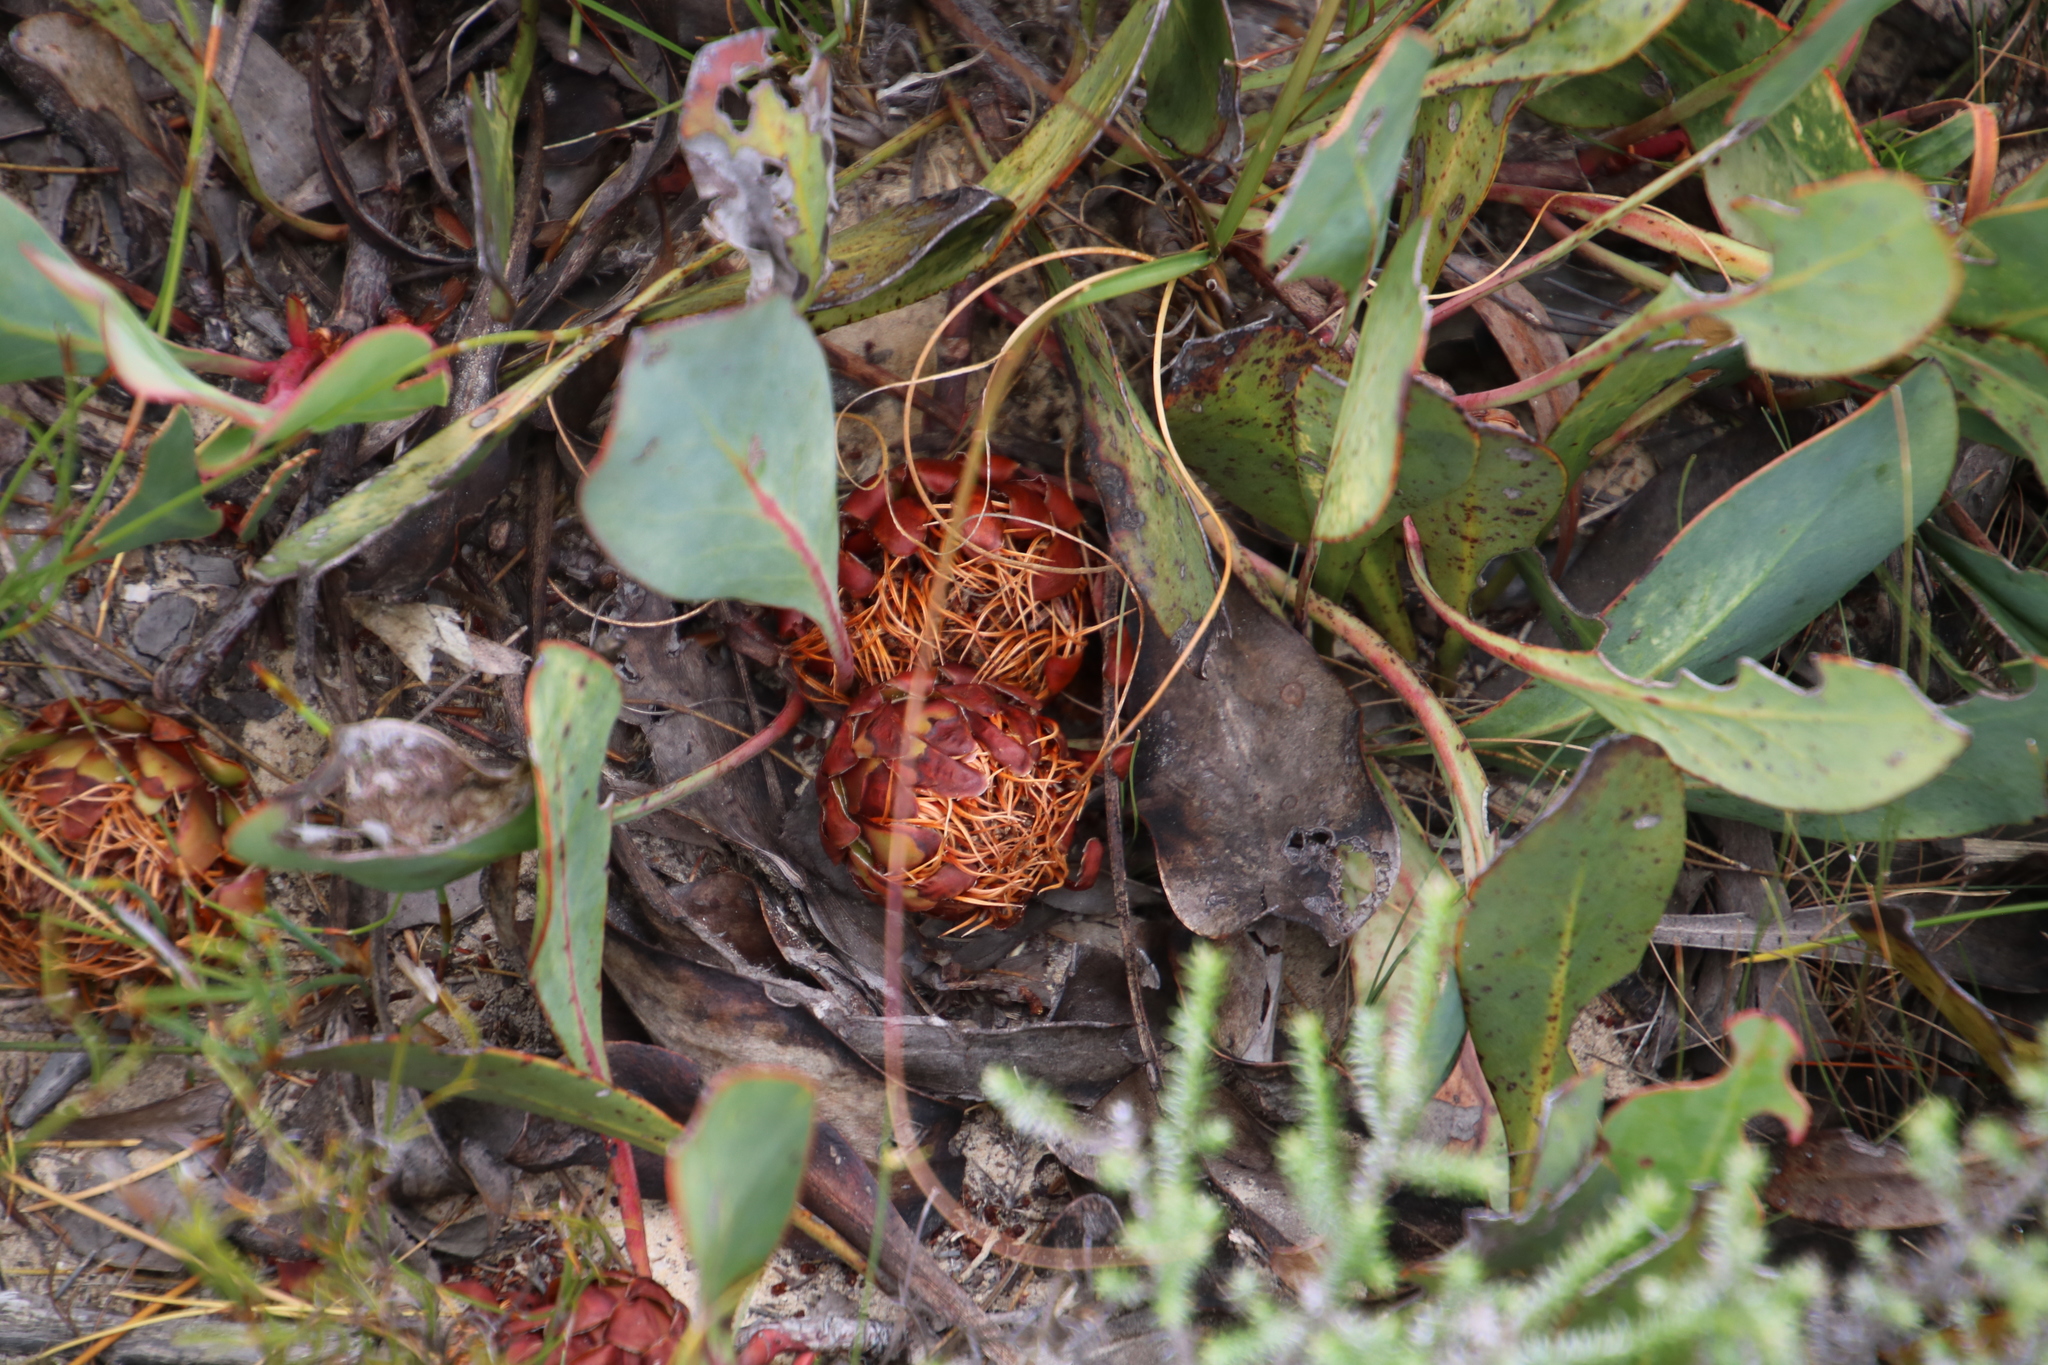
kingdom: Plantae
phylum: Tracheophyta
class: Magnoliopsida
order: Proteales
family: Proteaceae
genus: Protea
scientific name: Protea cordata
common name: Heart-leaf sugarbush
